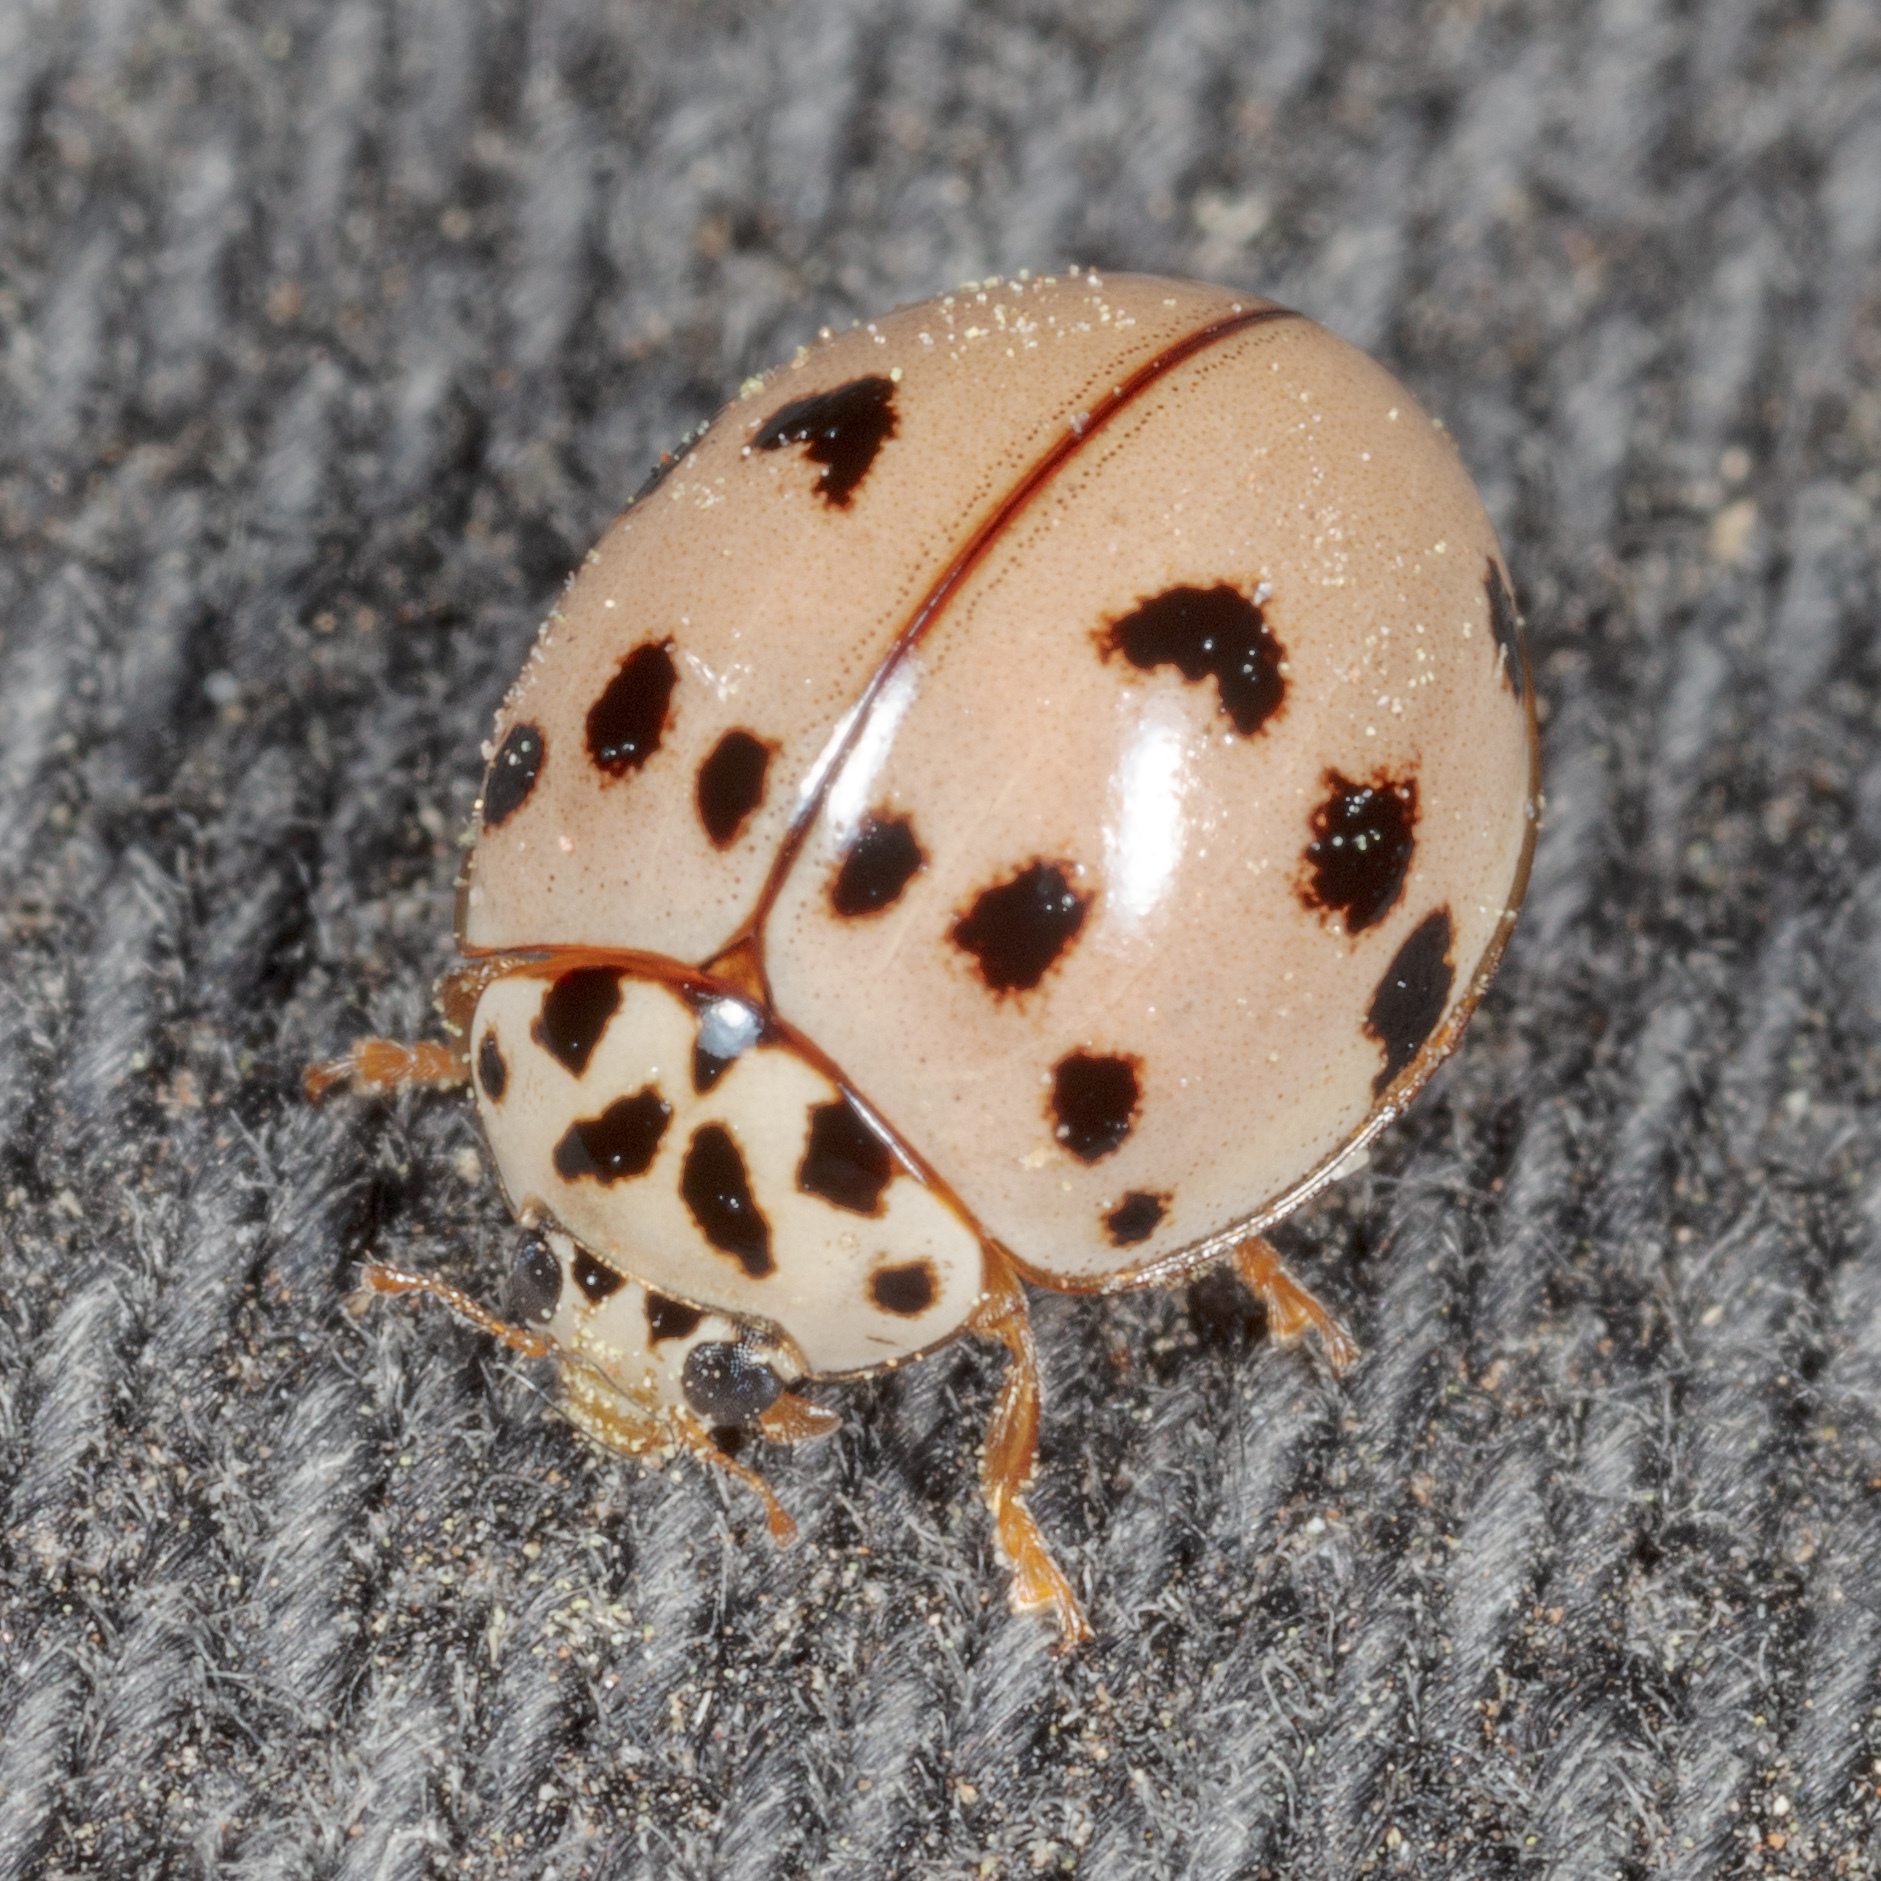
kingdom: Animalia
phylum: Arthropoda
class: Insecta
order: Coleoptera
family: Coccinellidae
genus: Olla
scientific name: Olla v-nigrum
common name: Ashy gray lady beetle
